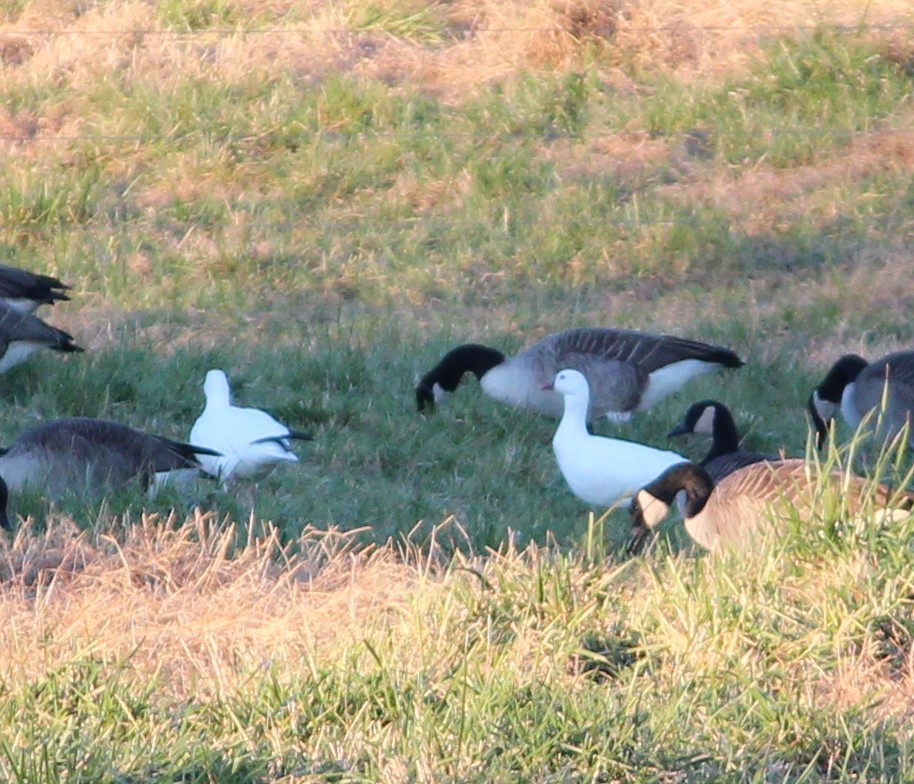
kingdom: Animalia
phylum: Chordata
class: Aves
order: Anseriformes
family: Anatidae
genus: Anser
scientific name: Anser rossii
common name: Ross's goose
